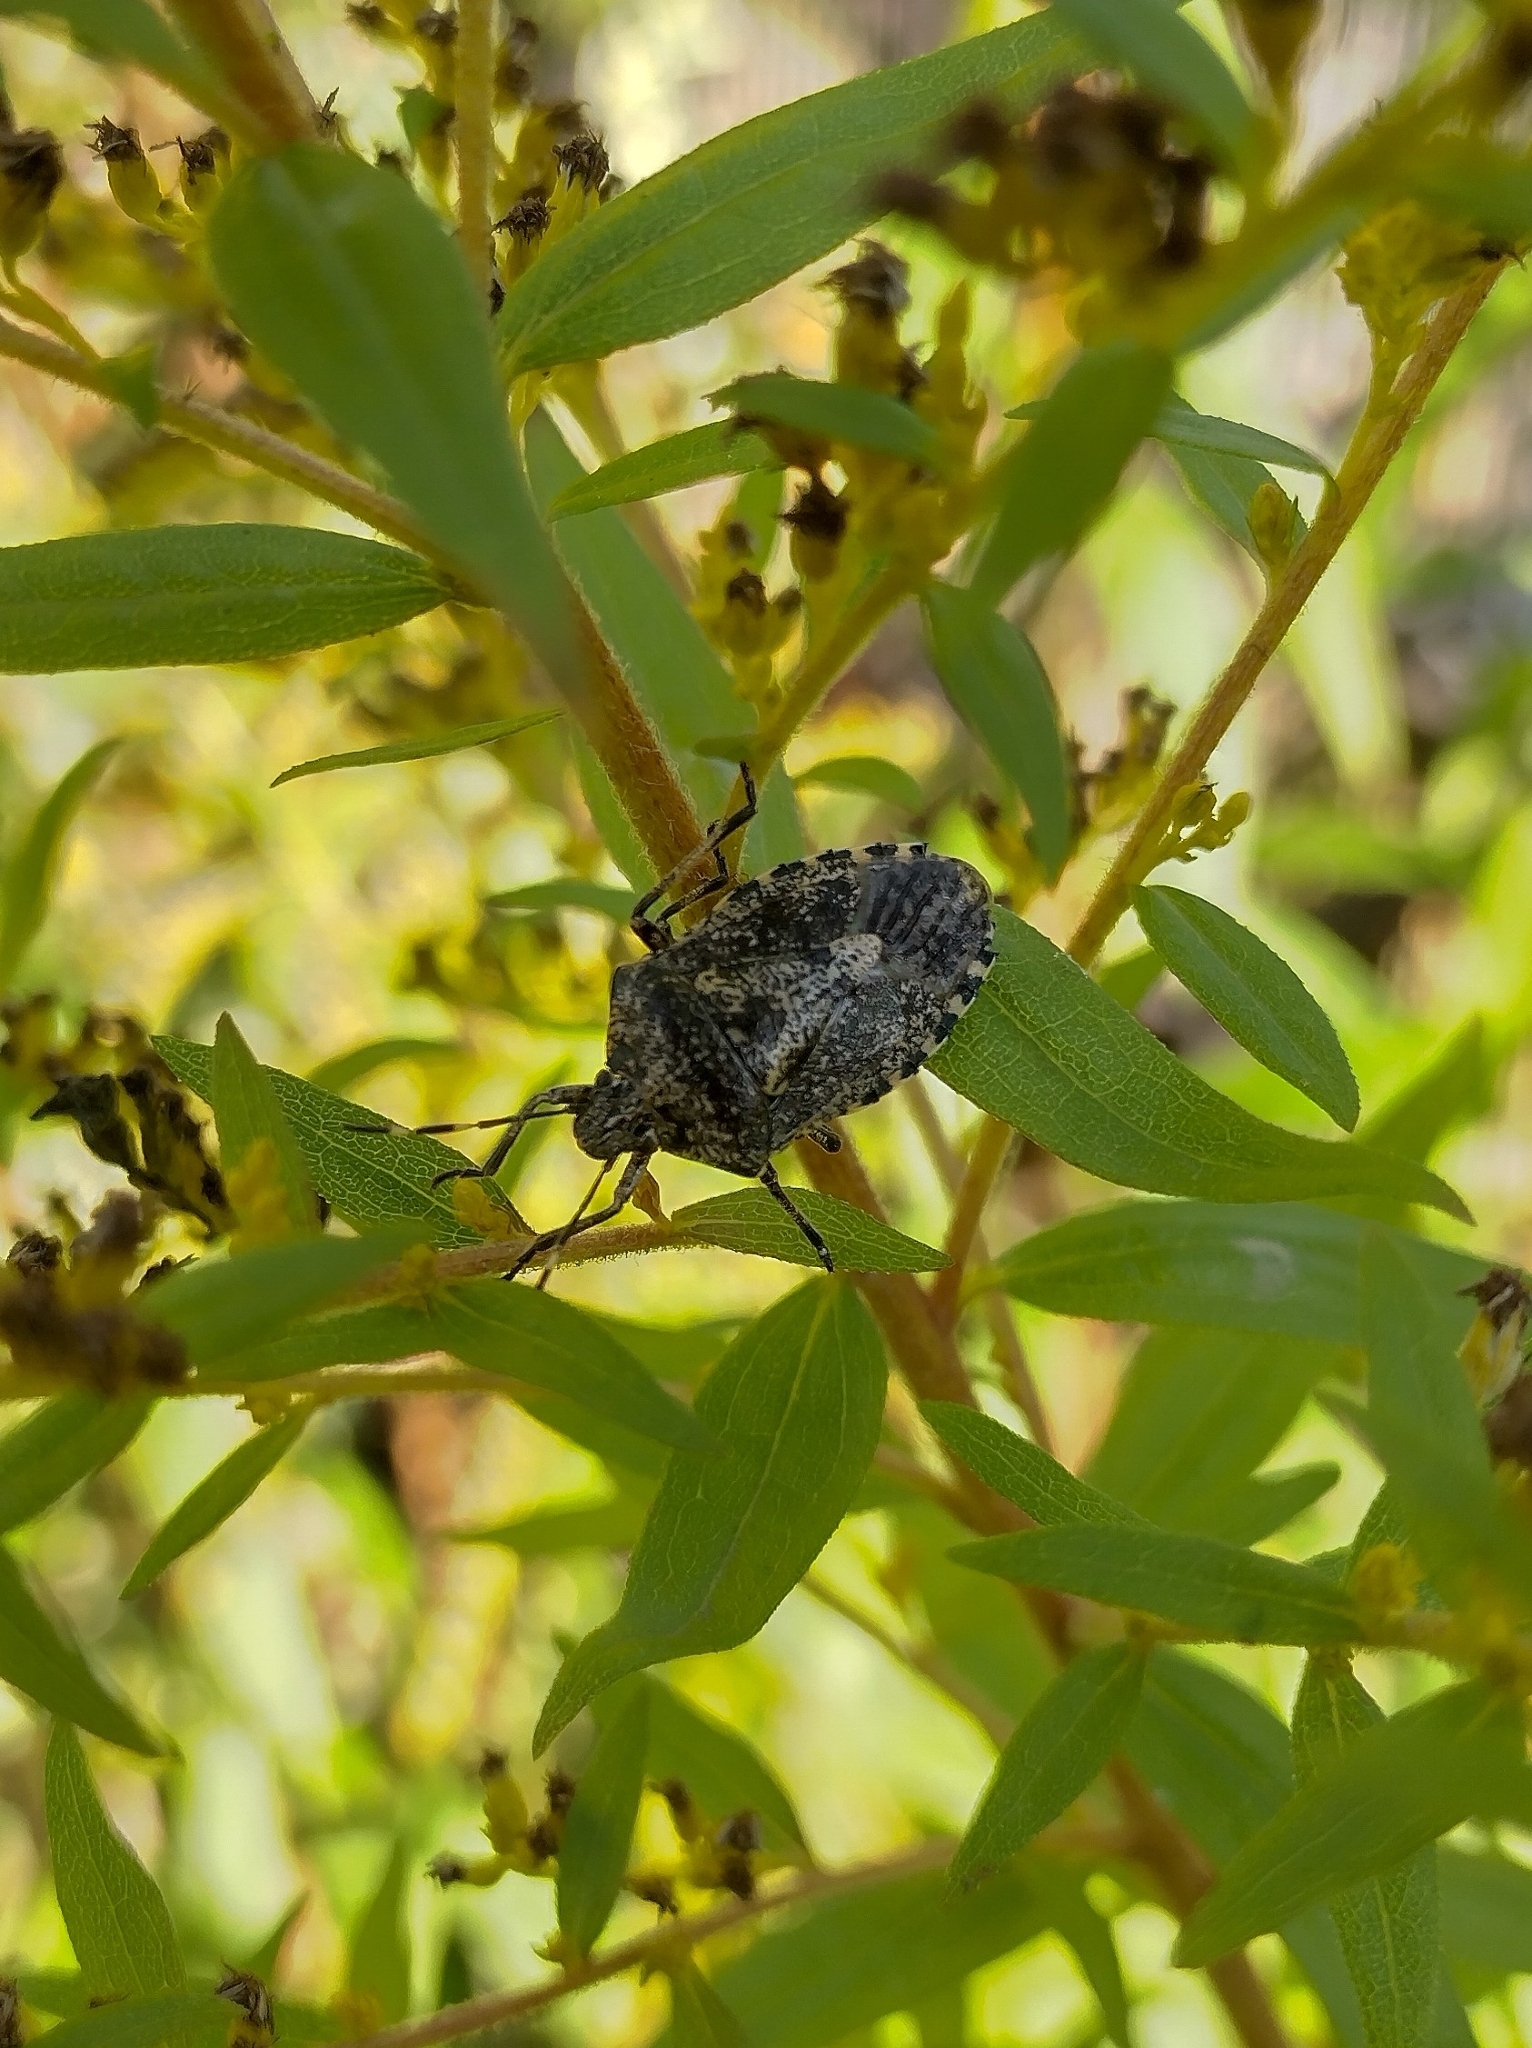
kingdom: Animalia
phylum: Arthropoda
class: Insecta
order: Hemiptera
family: Pentatomidae
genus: Rhaphigaster
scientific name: Rhaphigaster nebulosa
